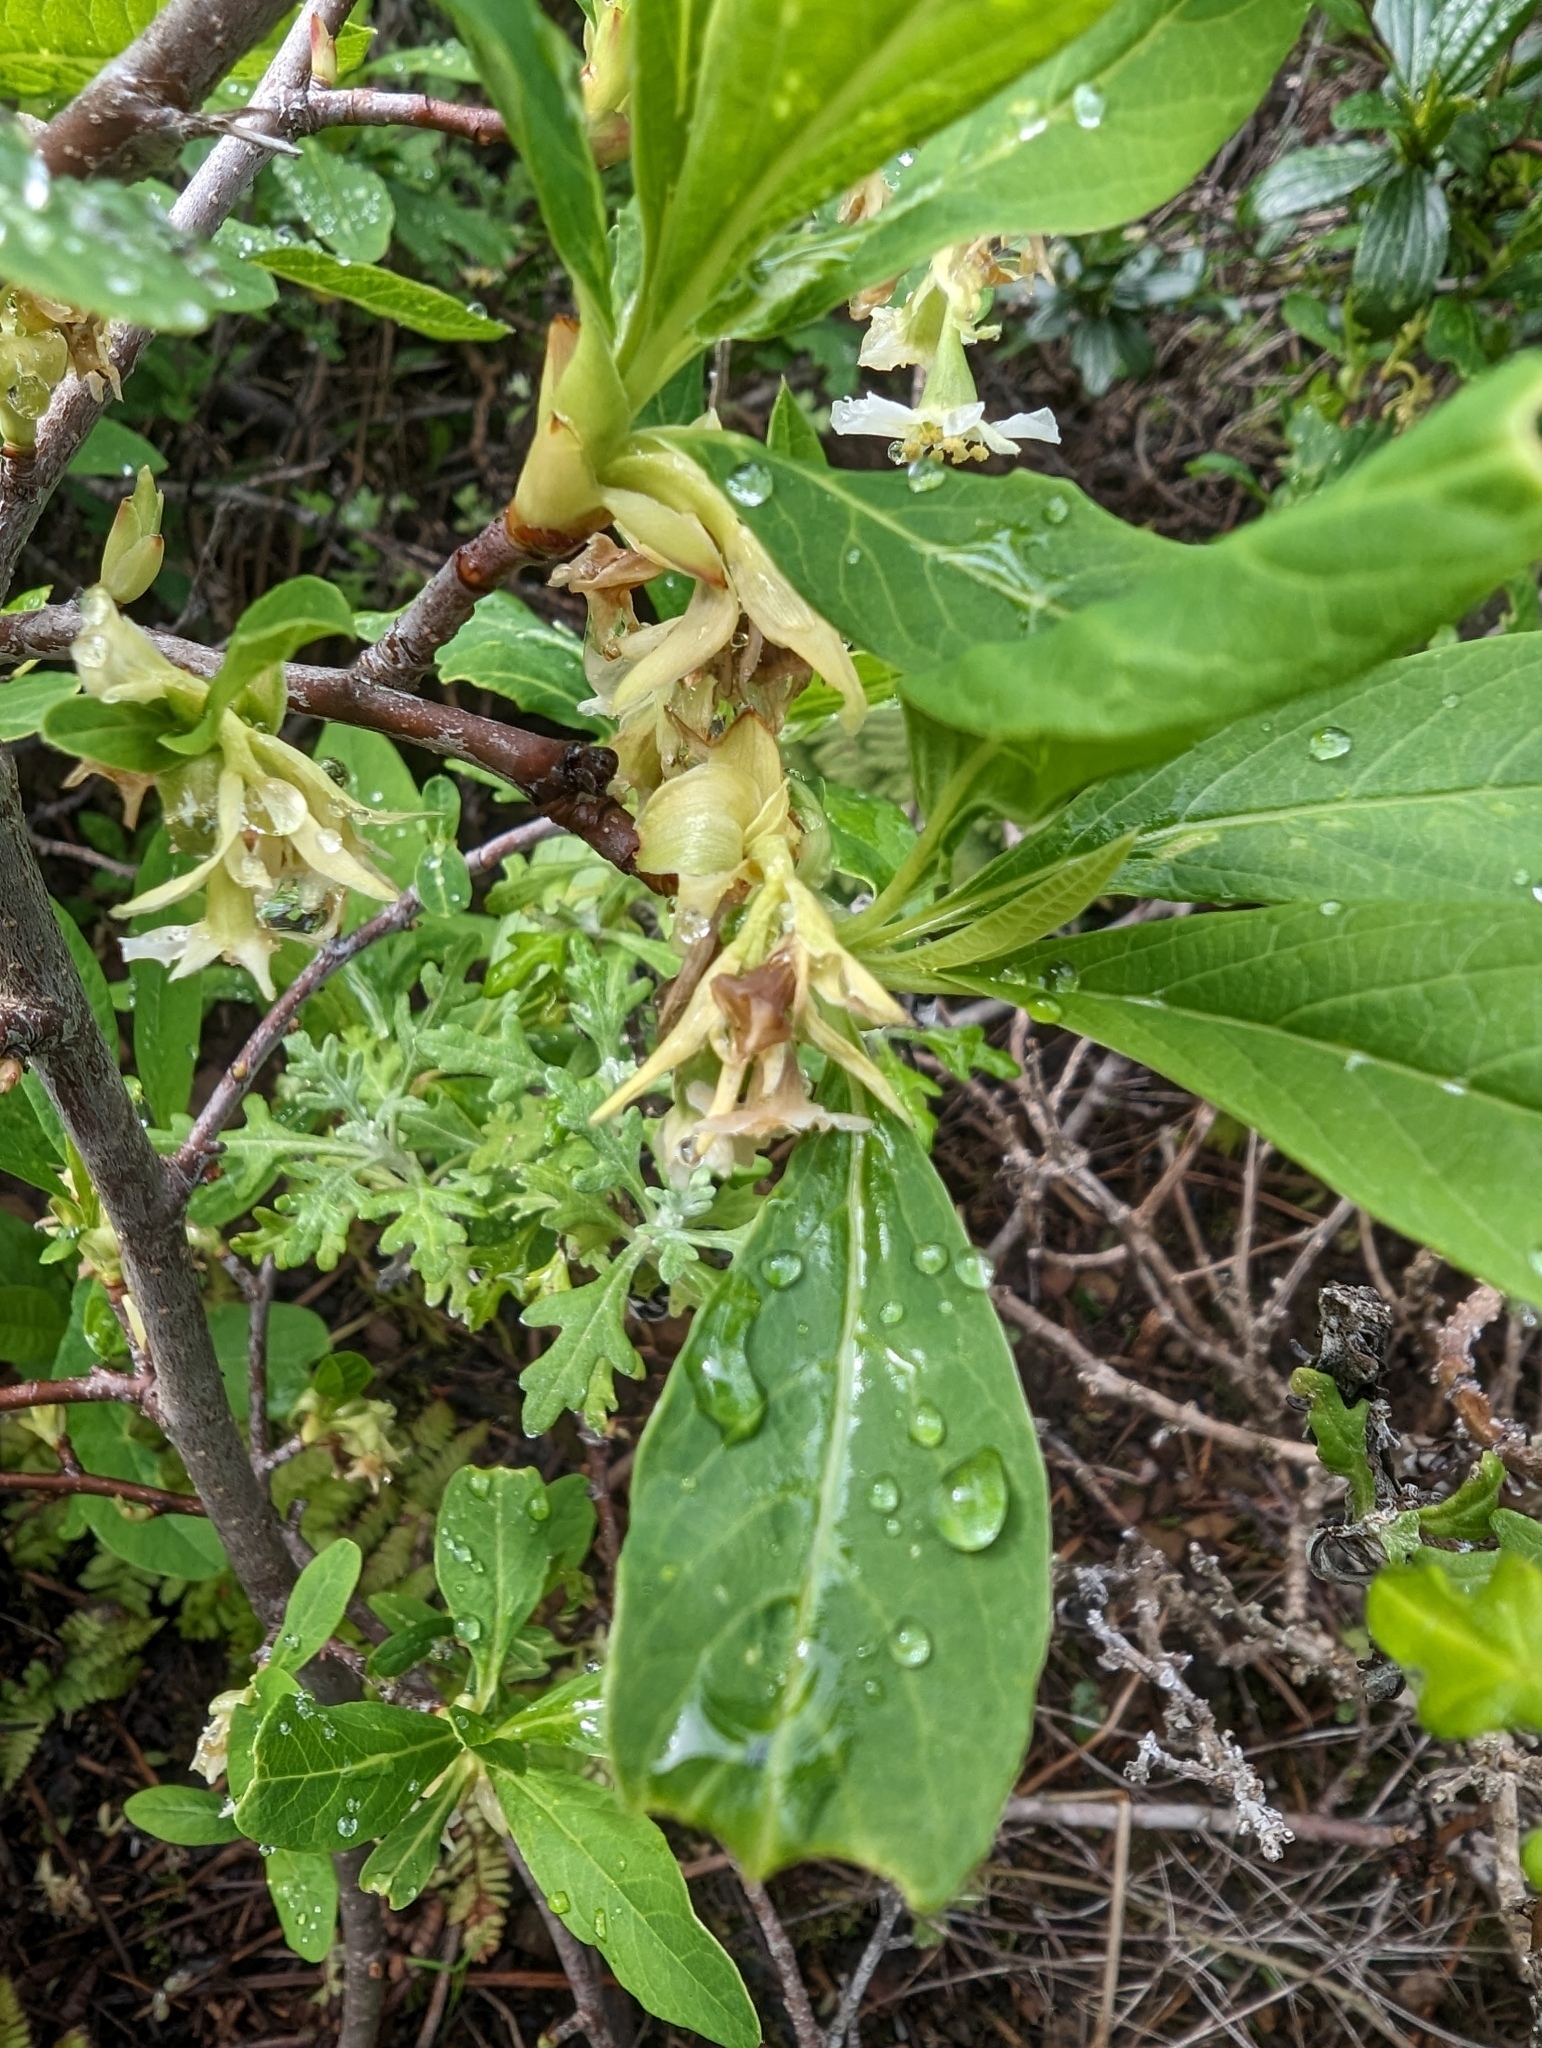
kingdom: Plantae
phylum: Tracheophyta
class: Magnoliopsida
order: Rosales
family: Rosaceae
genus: Oemleria
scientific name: Oemleria cerasiformis
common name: Osoberry
